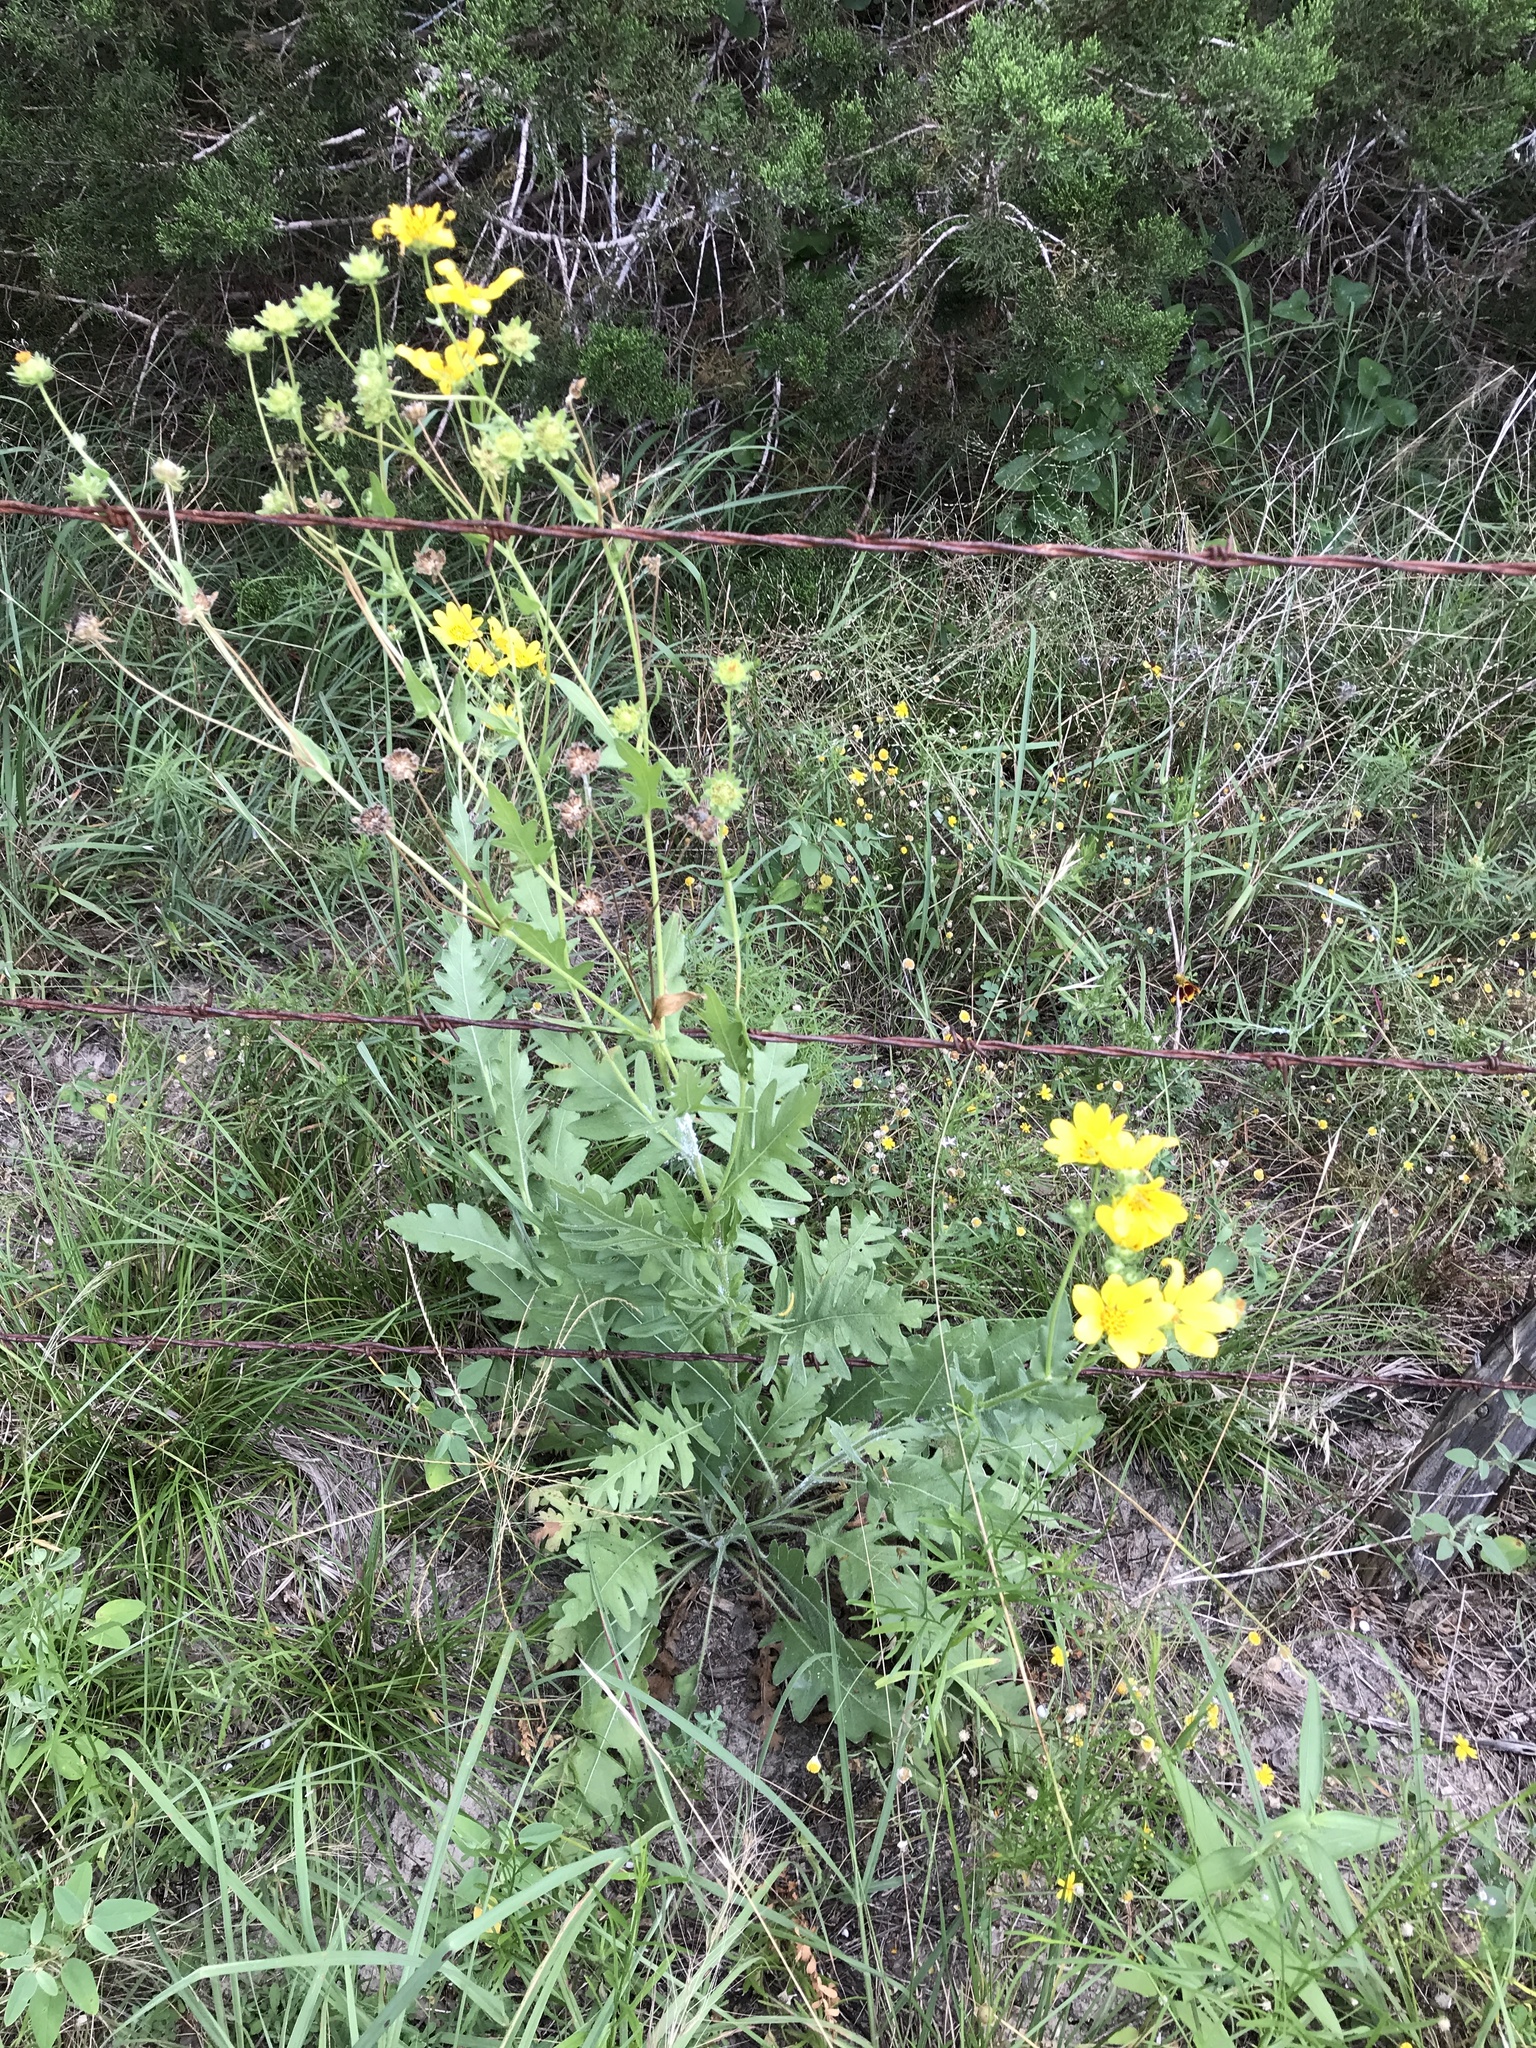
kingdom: Plantae
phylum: Tracheophyta
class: Magnoliopsida
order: Asterales
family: Asteraceae
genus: Engelmannia
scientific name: Engelmannia peristenia
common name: Engelmann's daisy
